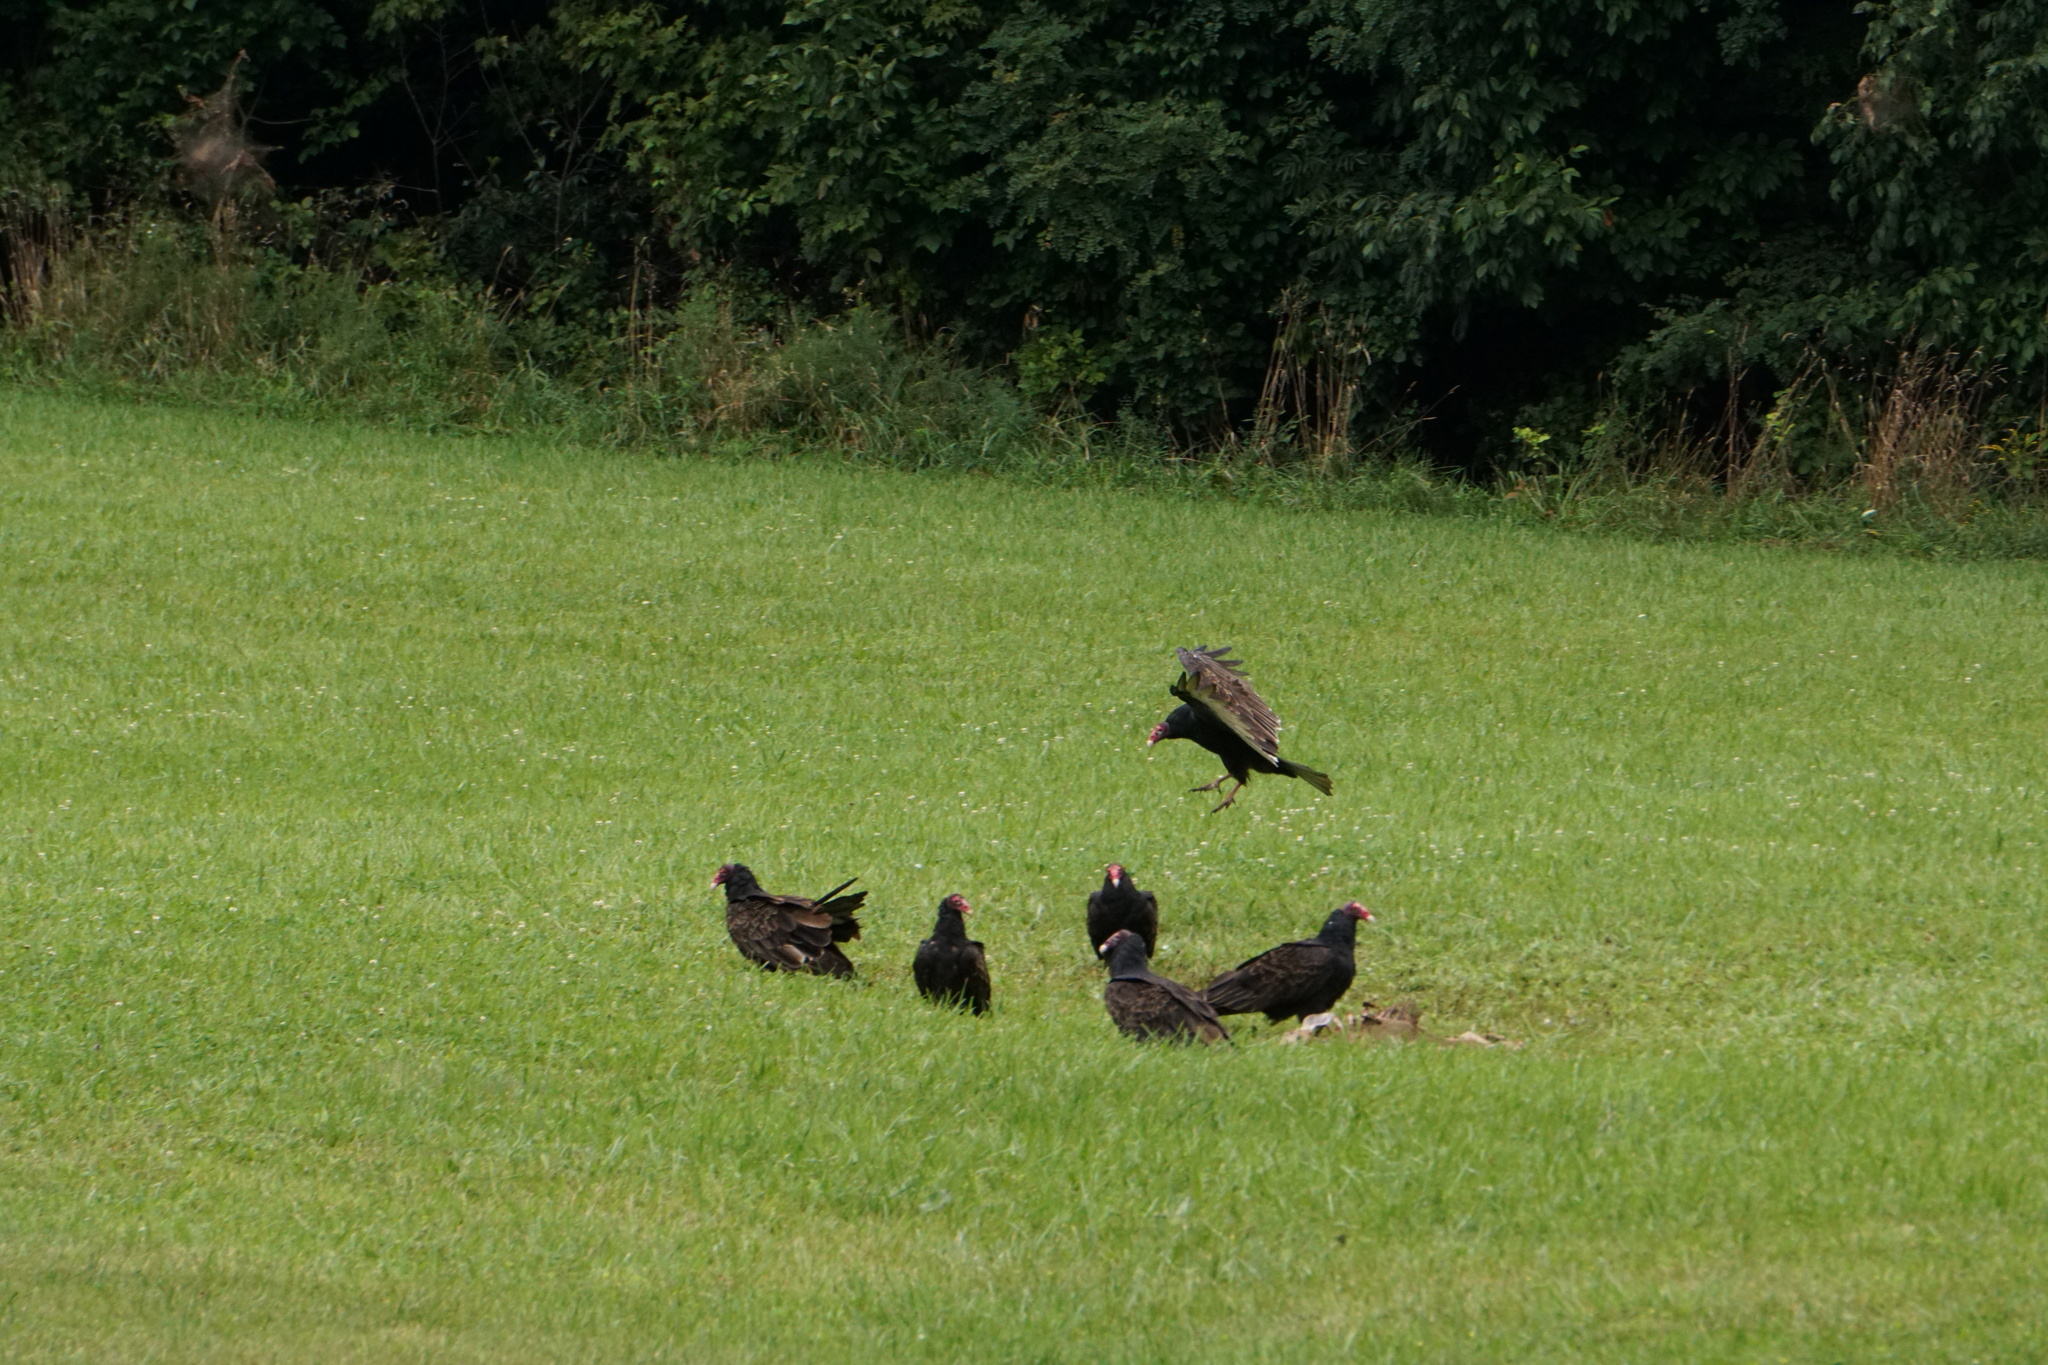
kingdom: Animalia
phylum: Chordata
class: Aves
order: Accipitriformes
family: Cathartidae
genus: Cathartes
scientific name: Cathartes aura
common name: Turkey vulture
